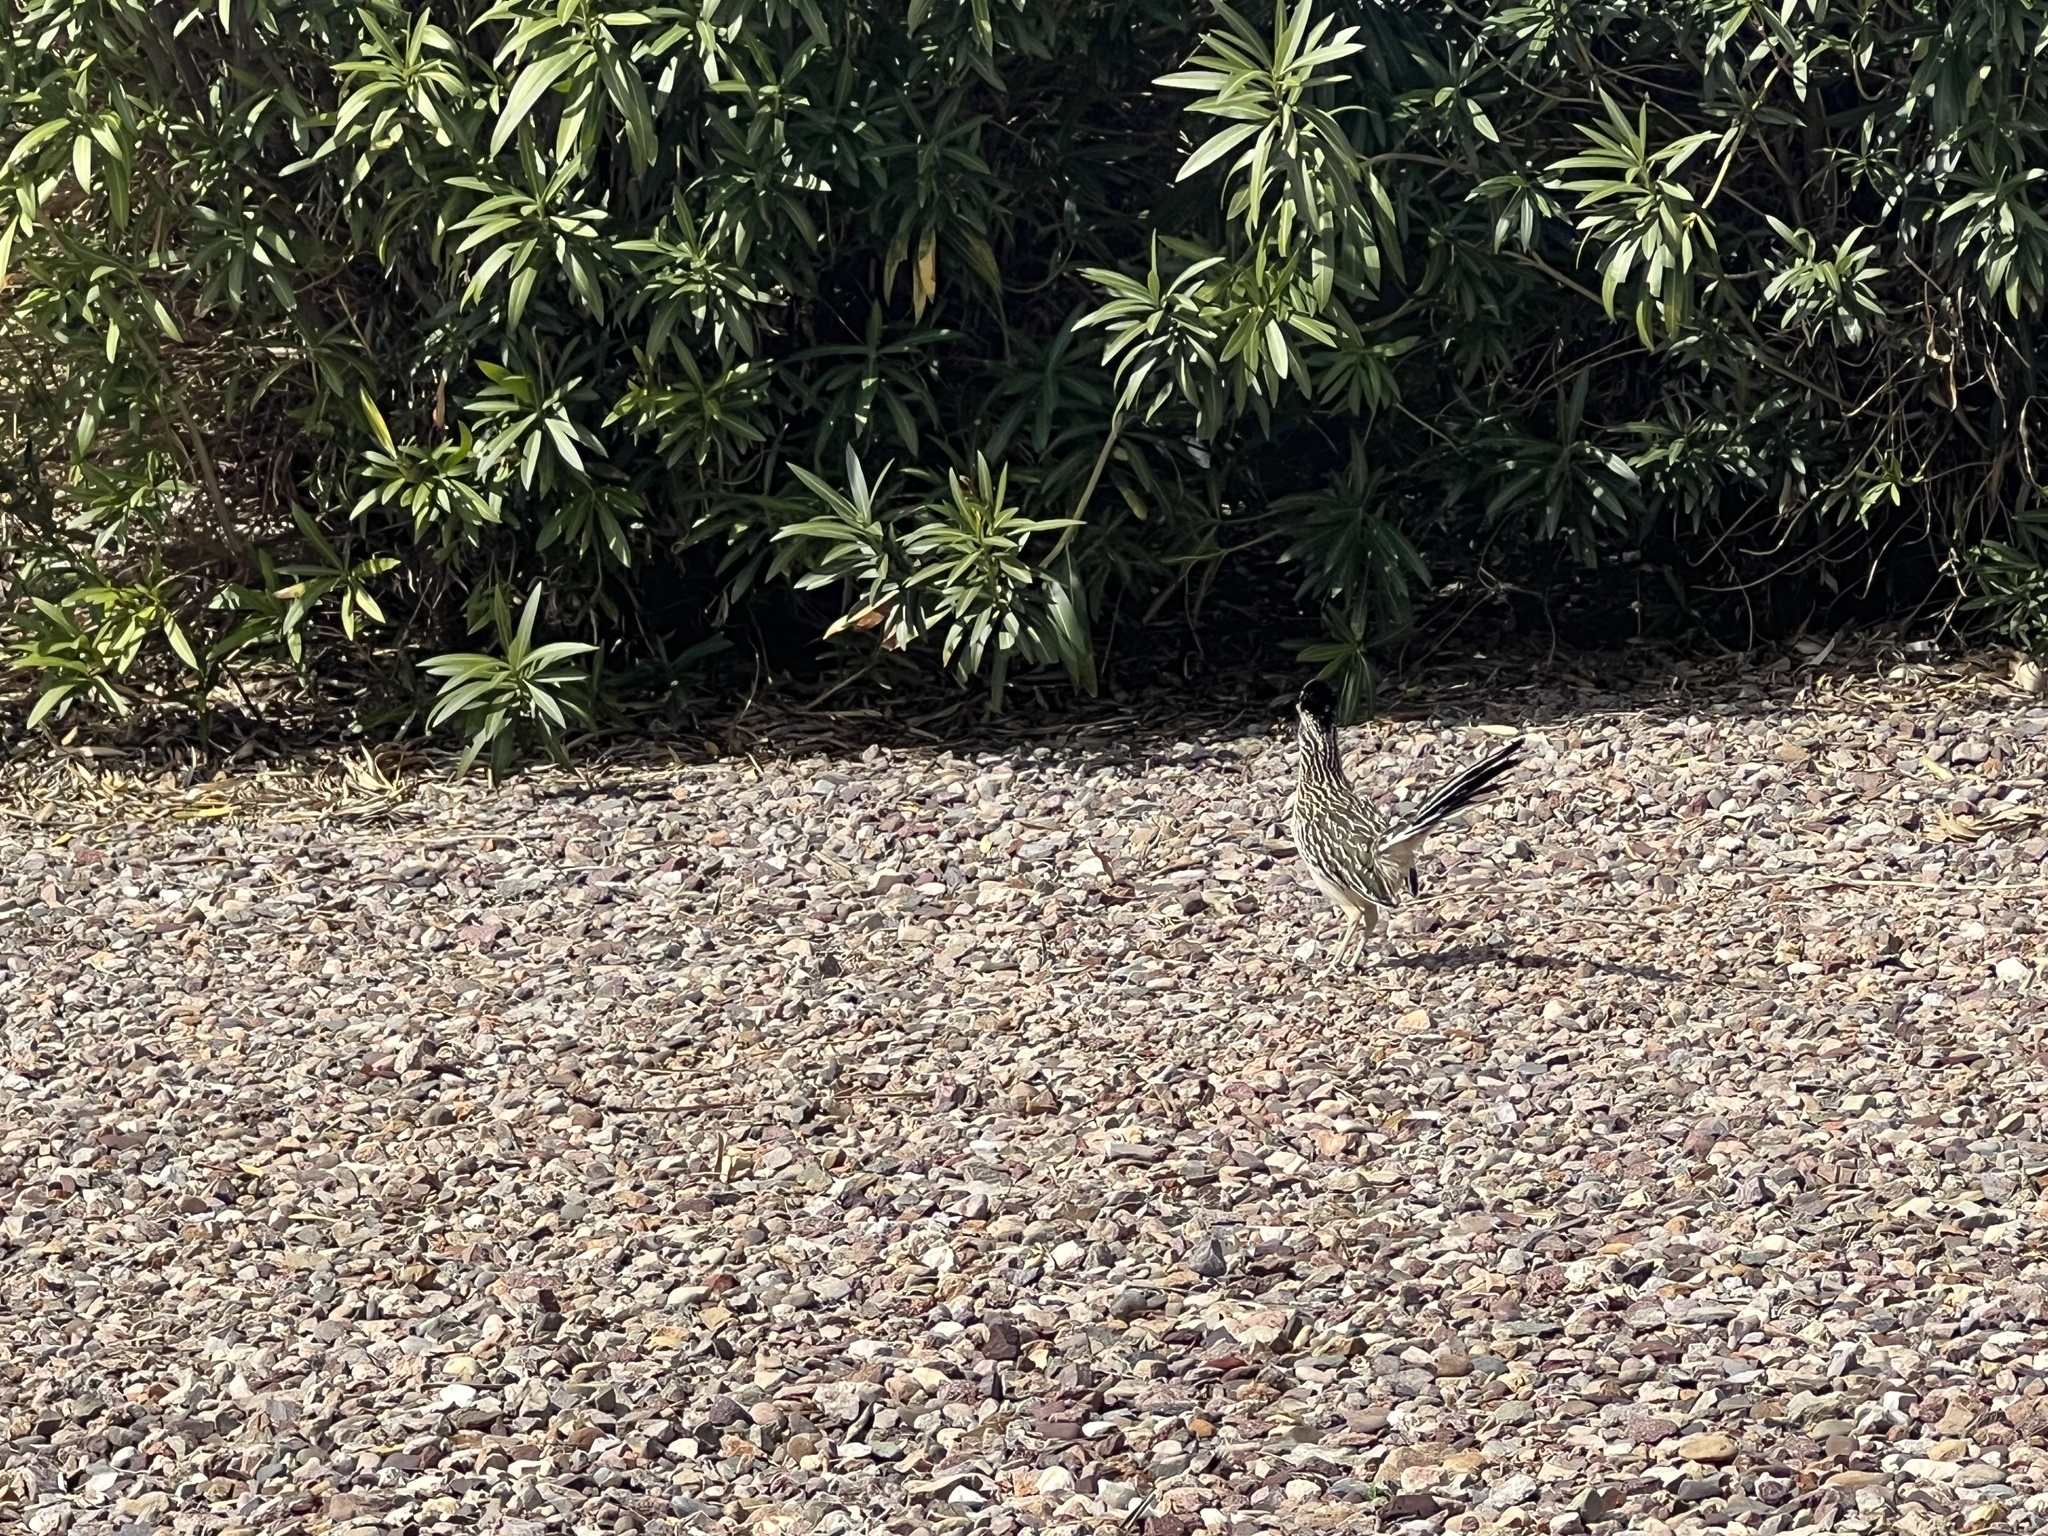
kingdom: Animalia
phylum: Chordata
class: Aves
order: Cuculiformes
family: Cuculidae
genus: Geococcyx
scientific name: Geococcyx californianus
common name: Greater roadrunner
